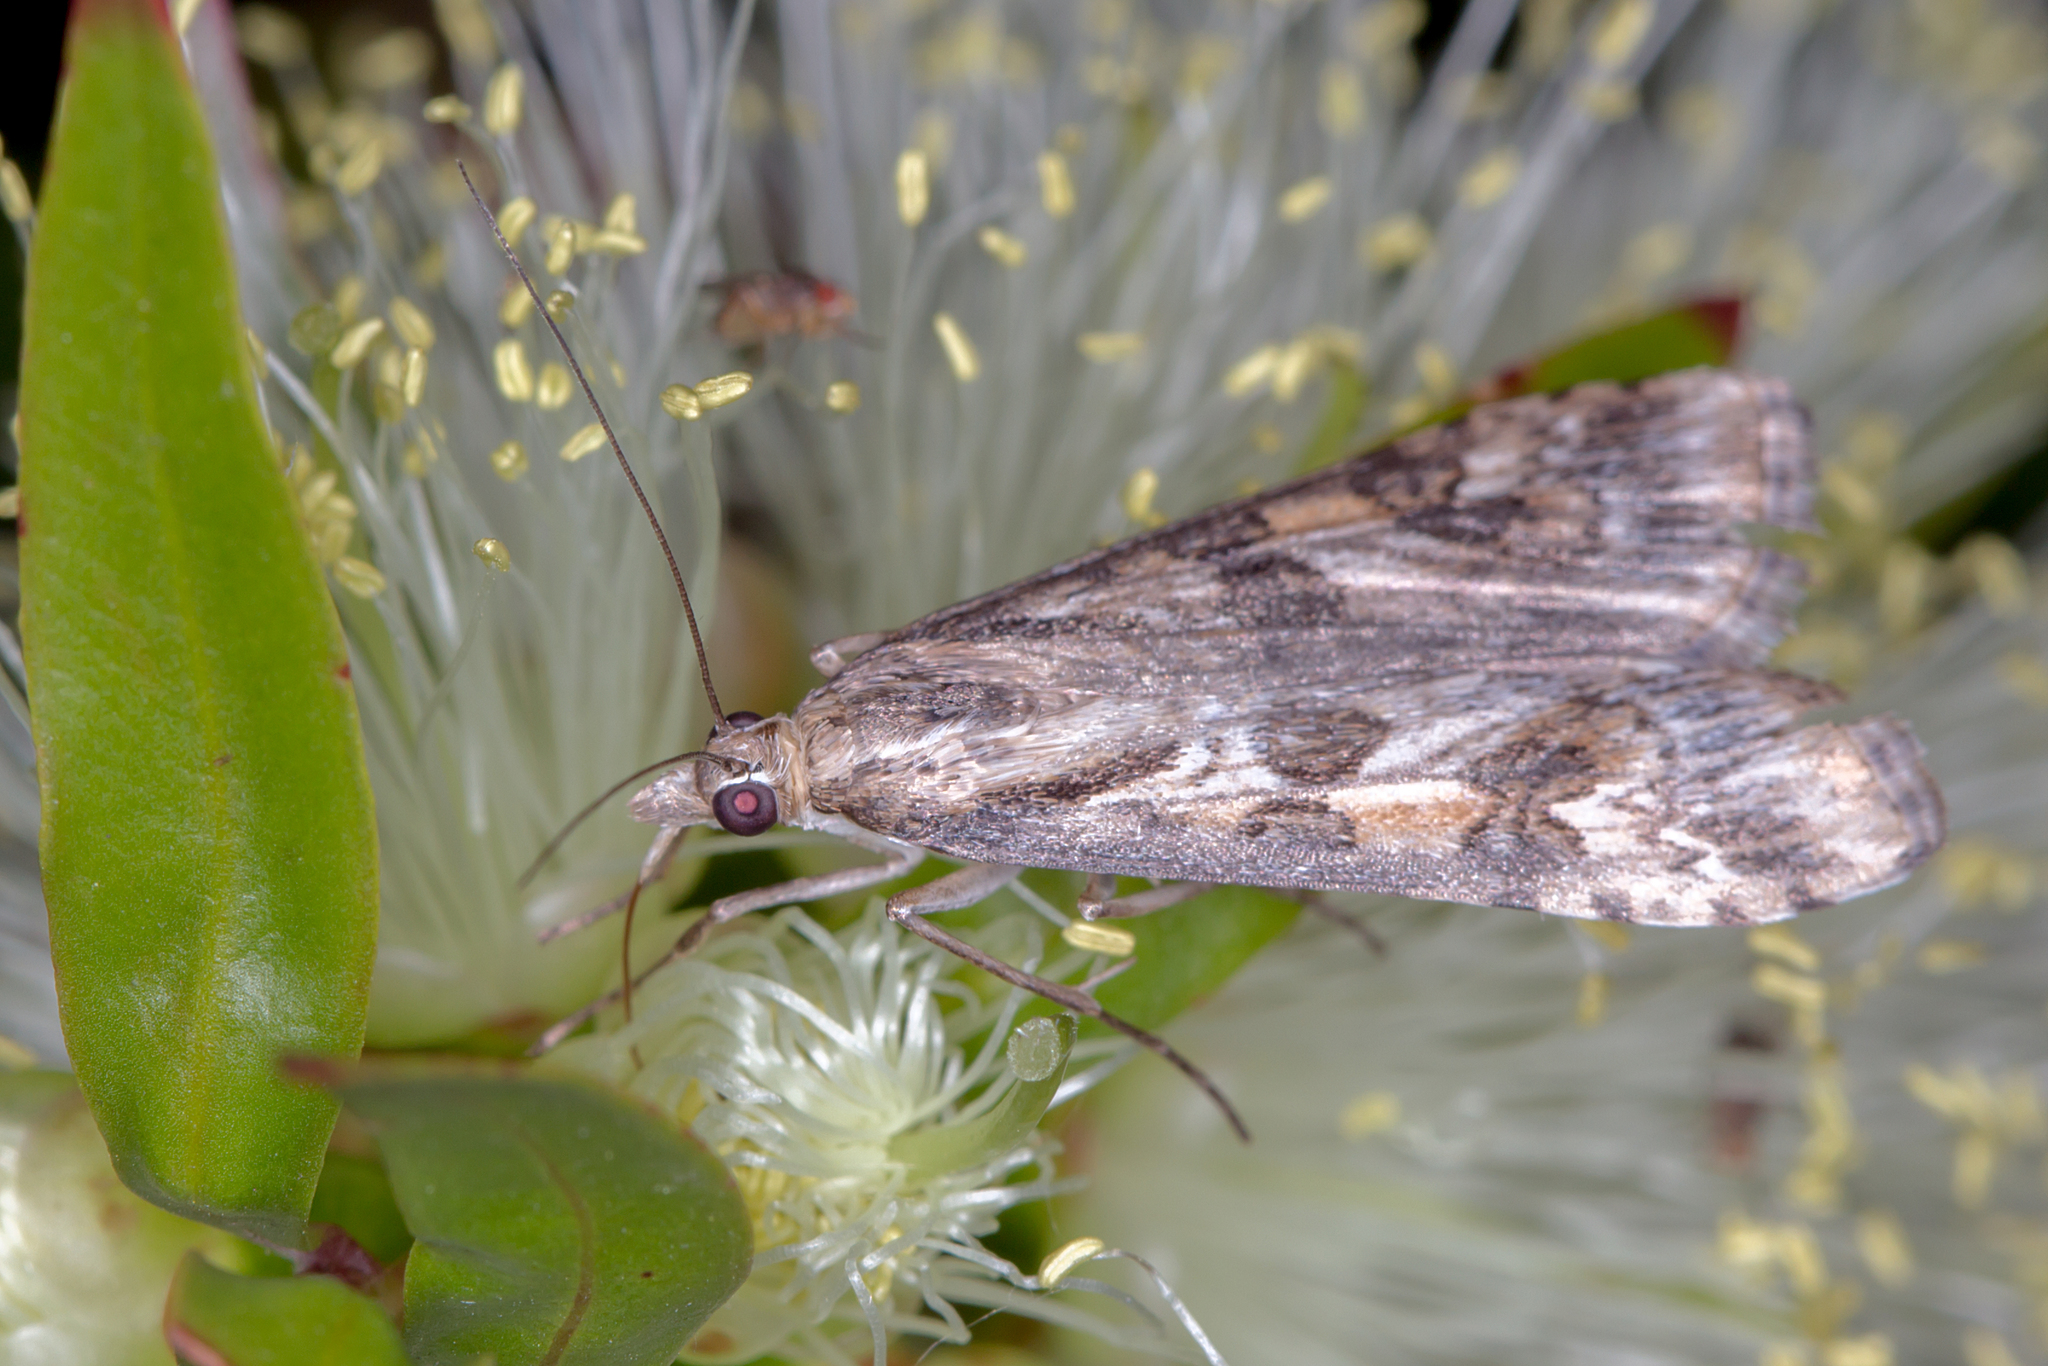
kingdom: Animalia
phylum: Arthropoda
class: Insecta
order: Lepidoptera
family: Crambidae
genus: Nomophila
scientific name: Nomophila corticalis
